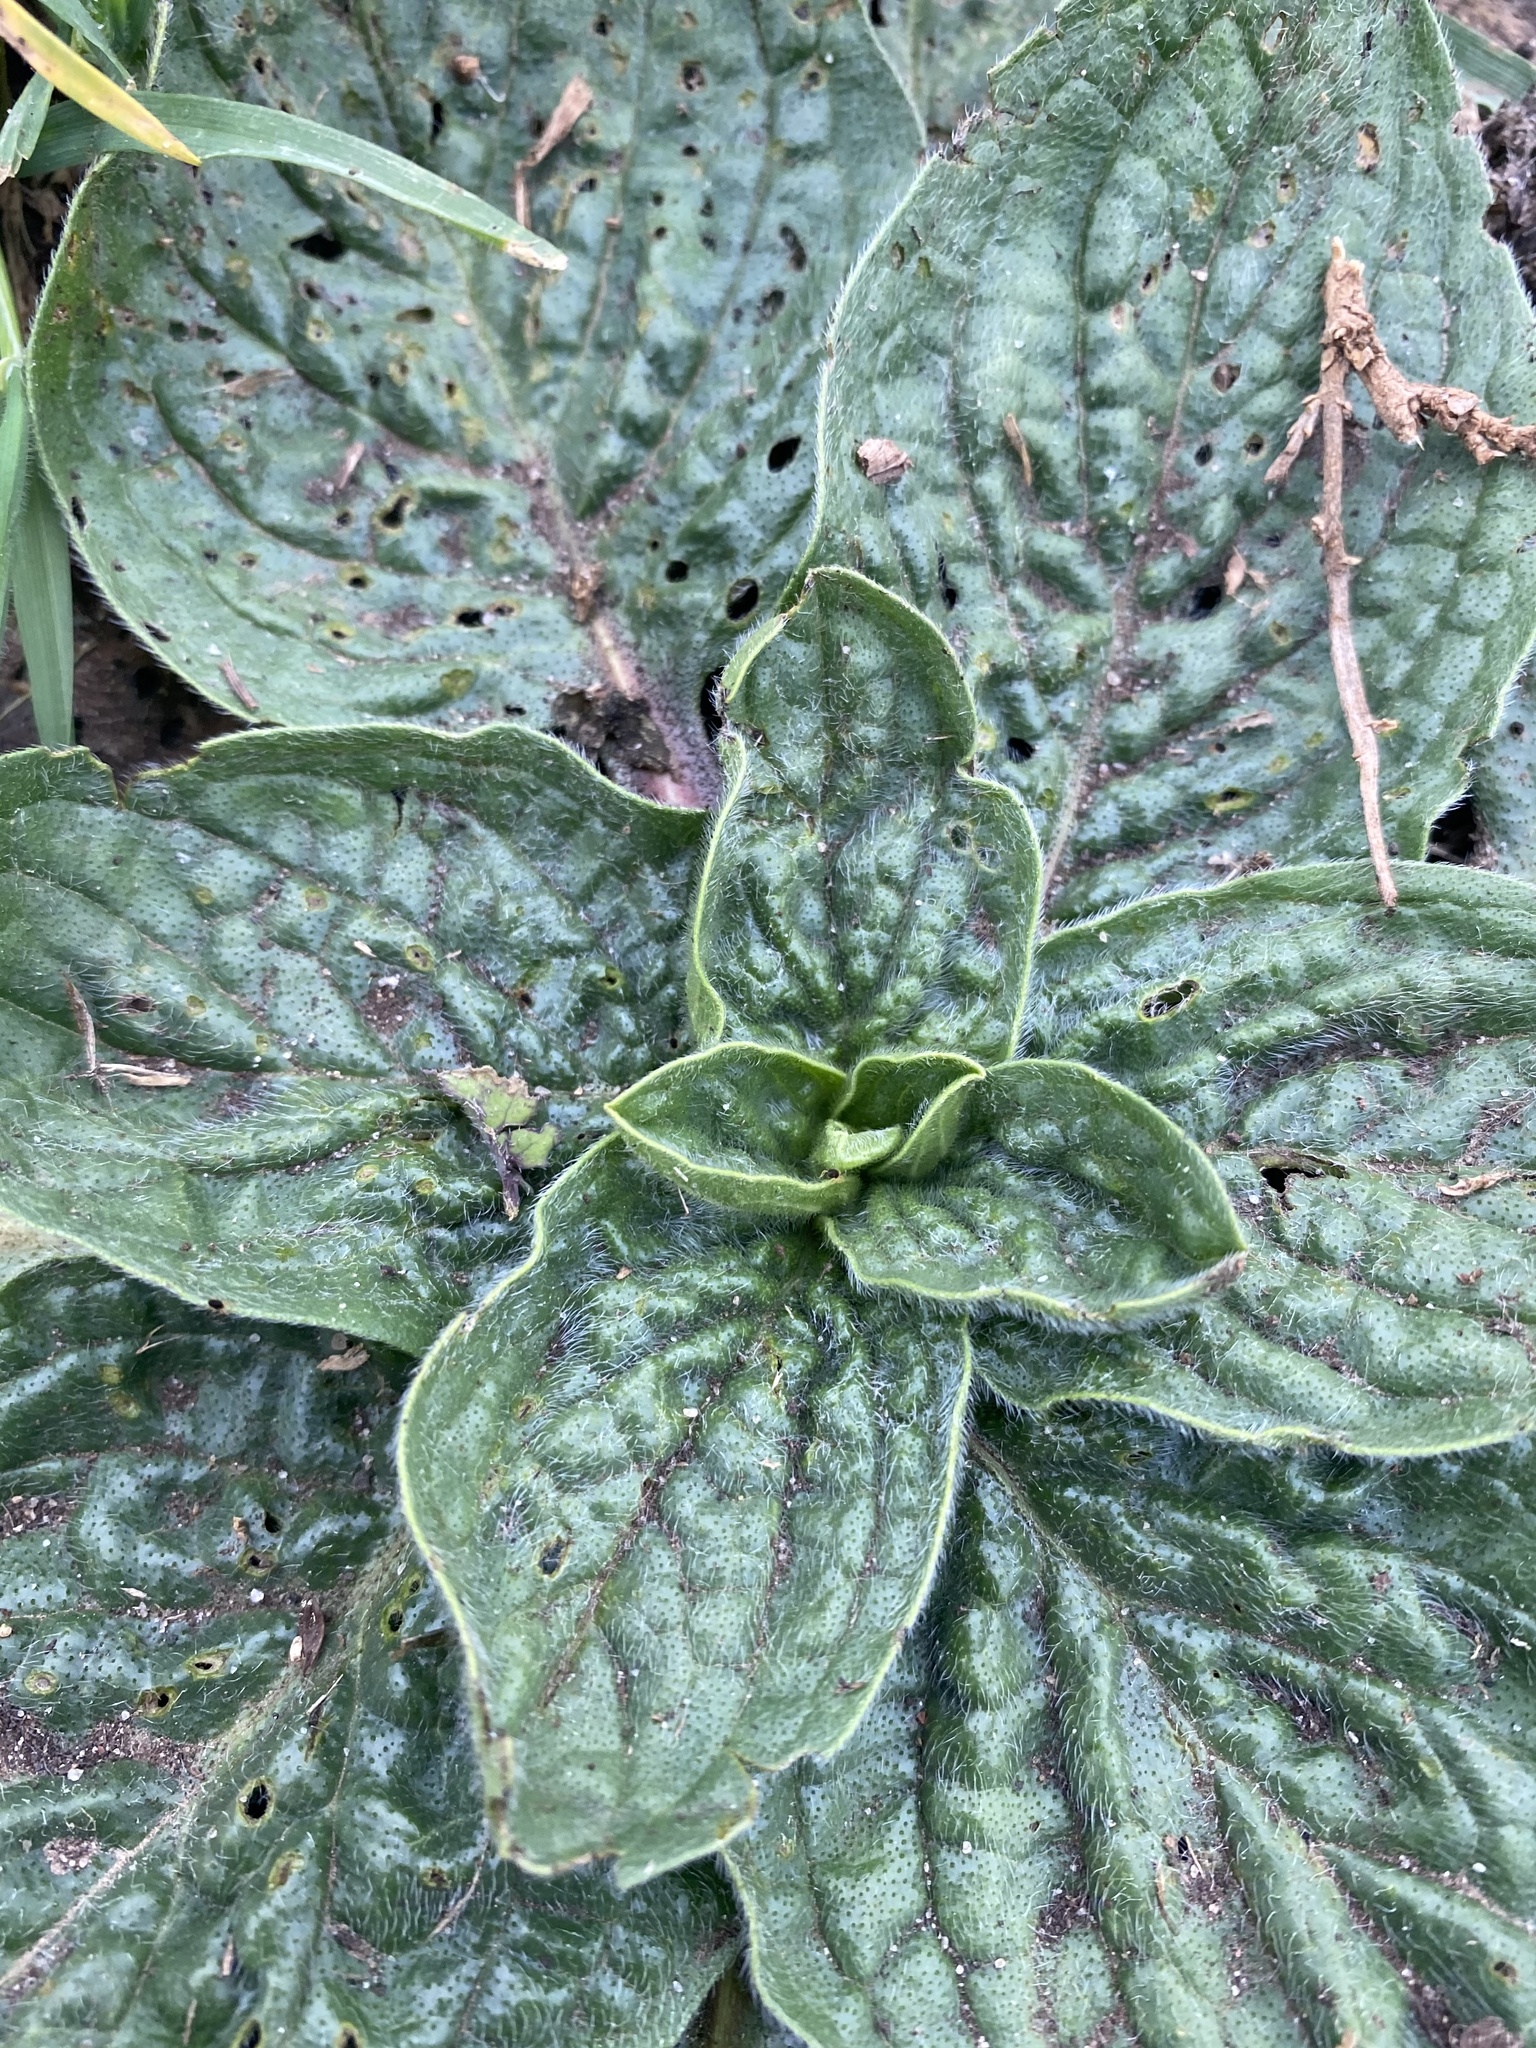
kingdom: Plantae
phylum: Tracheophyta
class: Magnoliopsida
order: Boraginales
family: Boraginaceae
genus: Echium
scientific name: Echium plantagineum
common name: Purple viper's-bugloss
